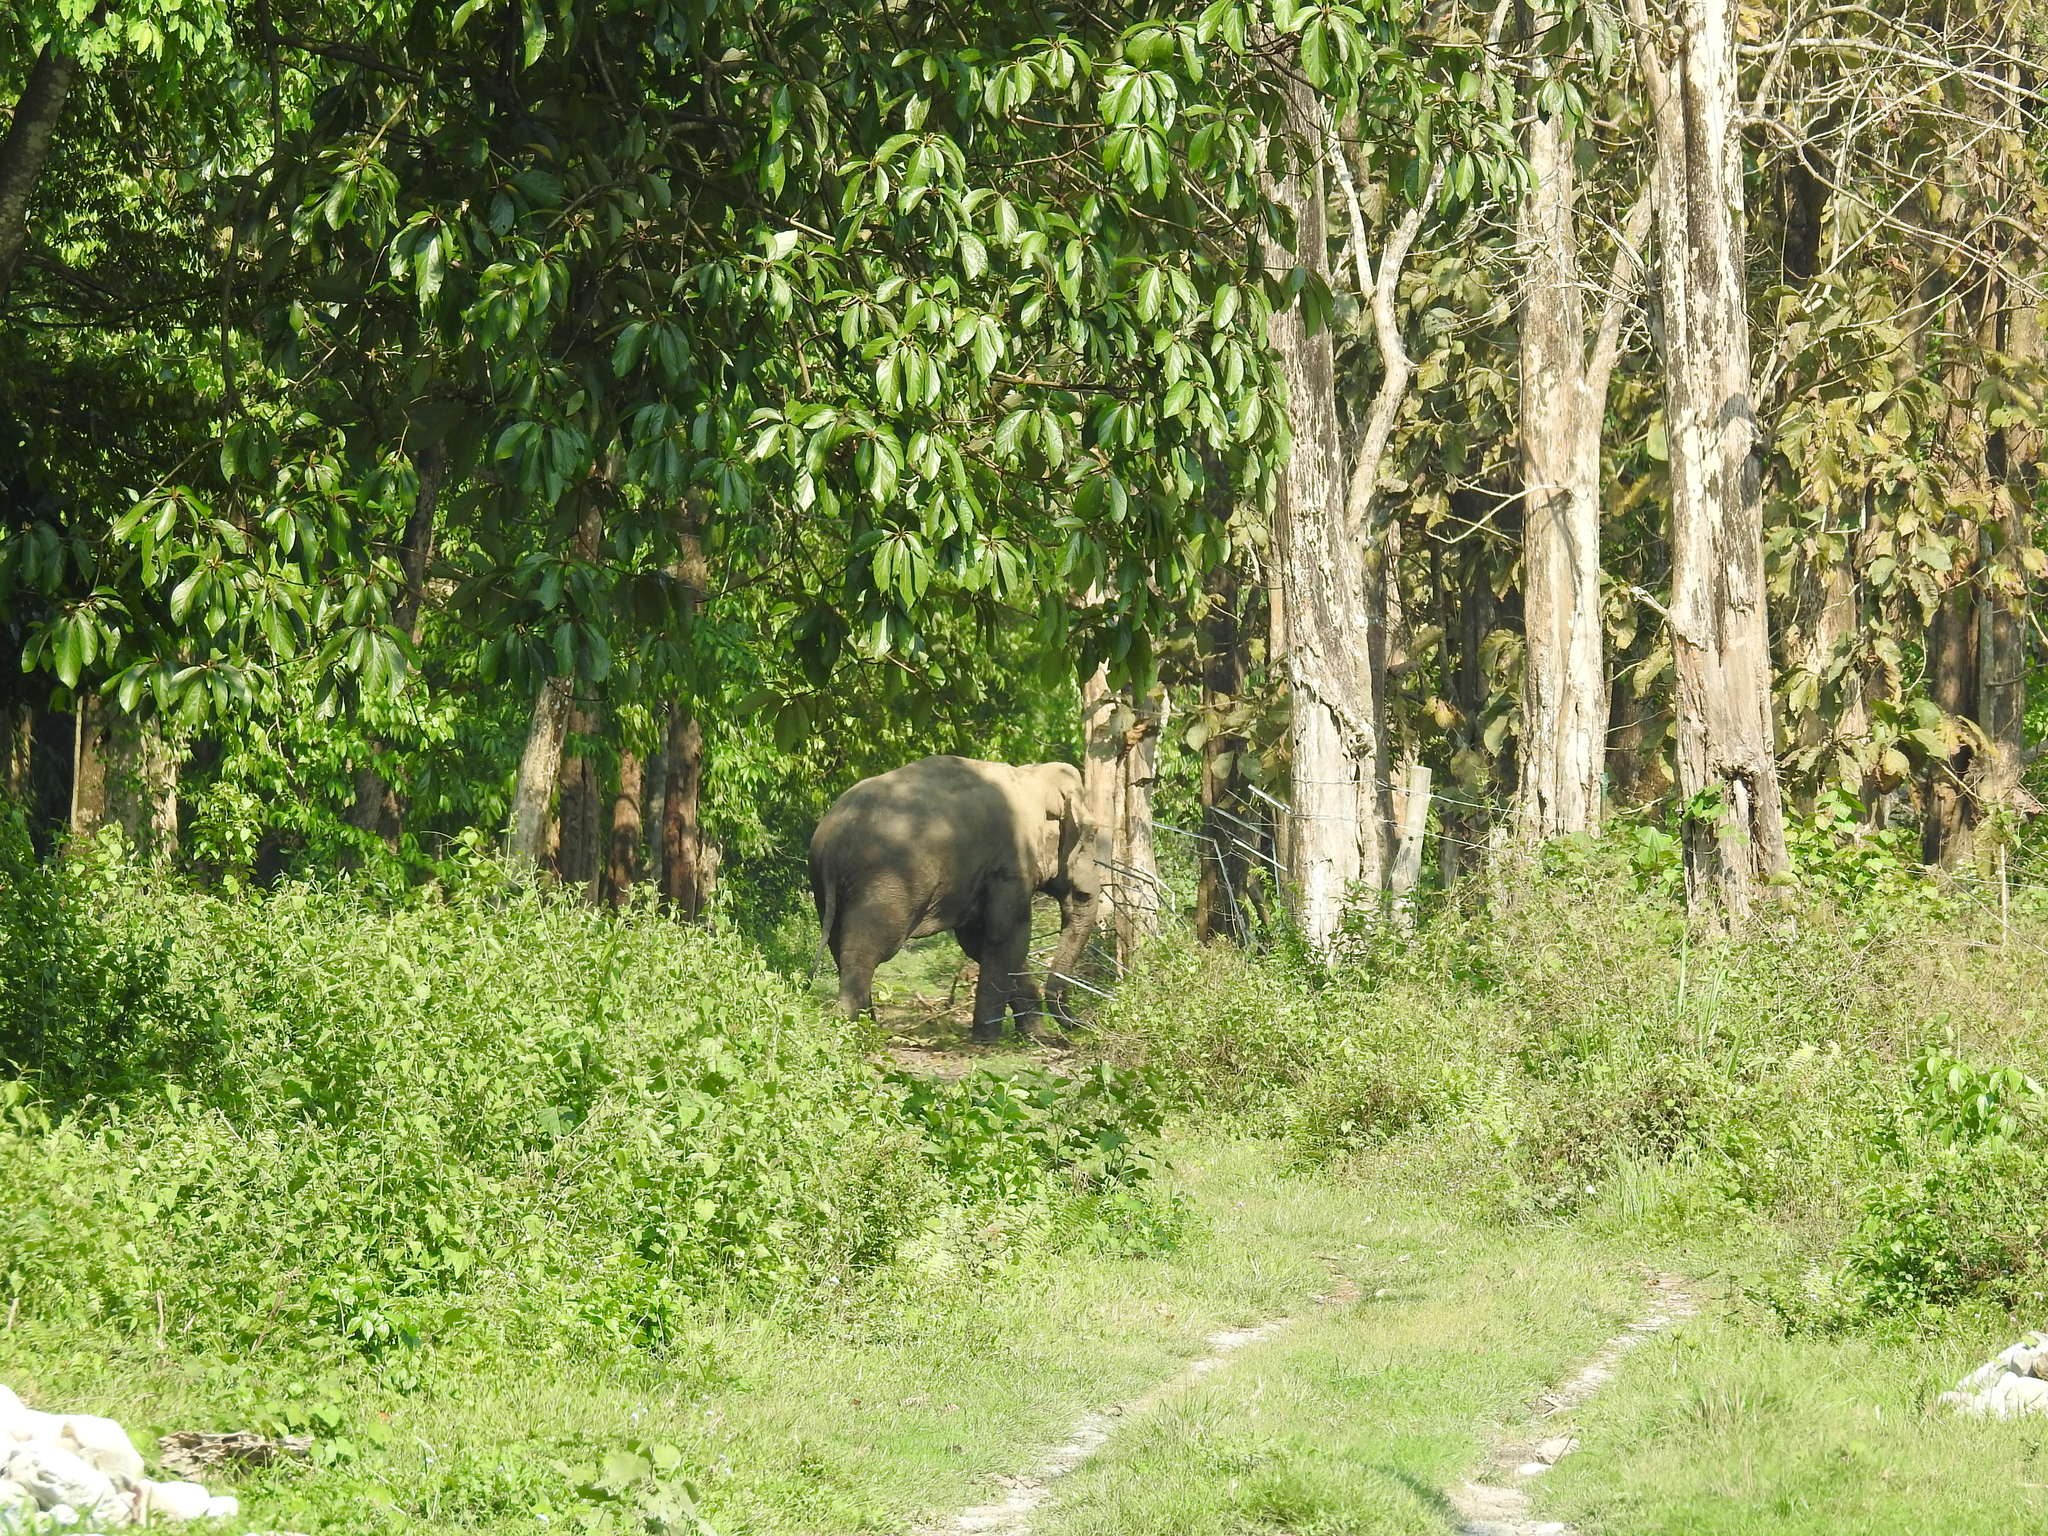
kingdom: Animalia
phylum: Chordata
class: Mammalia
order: Proboscidea
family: Elephantidae
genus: Elephas
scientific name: Elephas maximus
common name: Asian elephant
